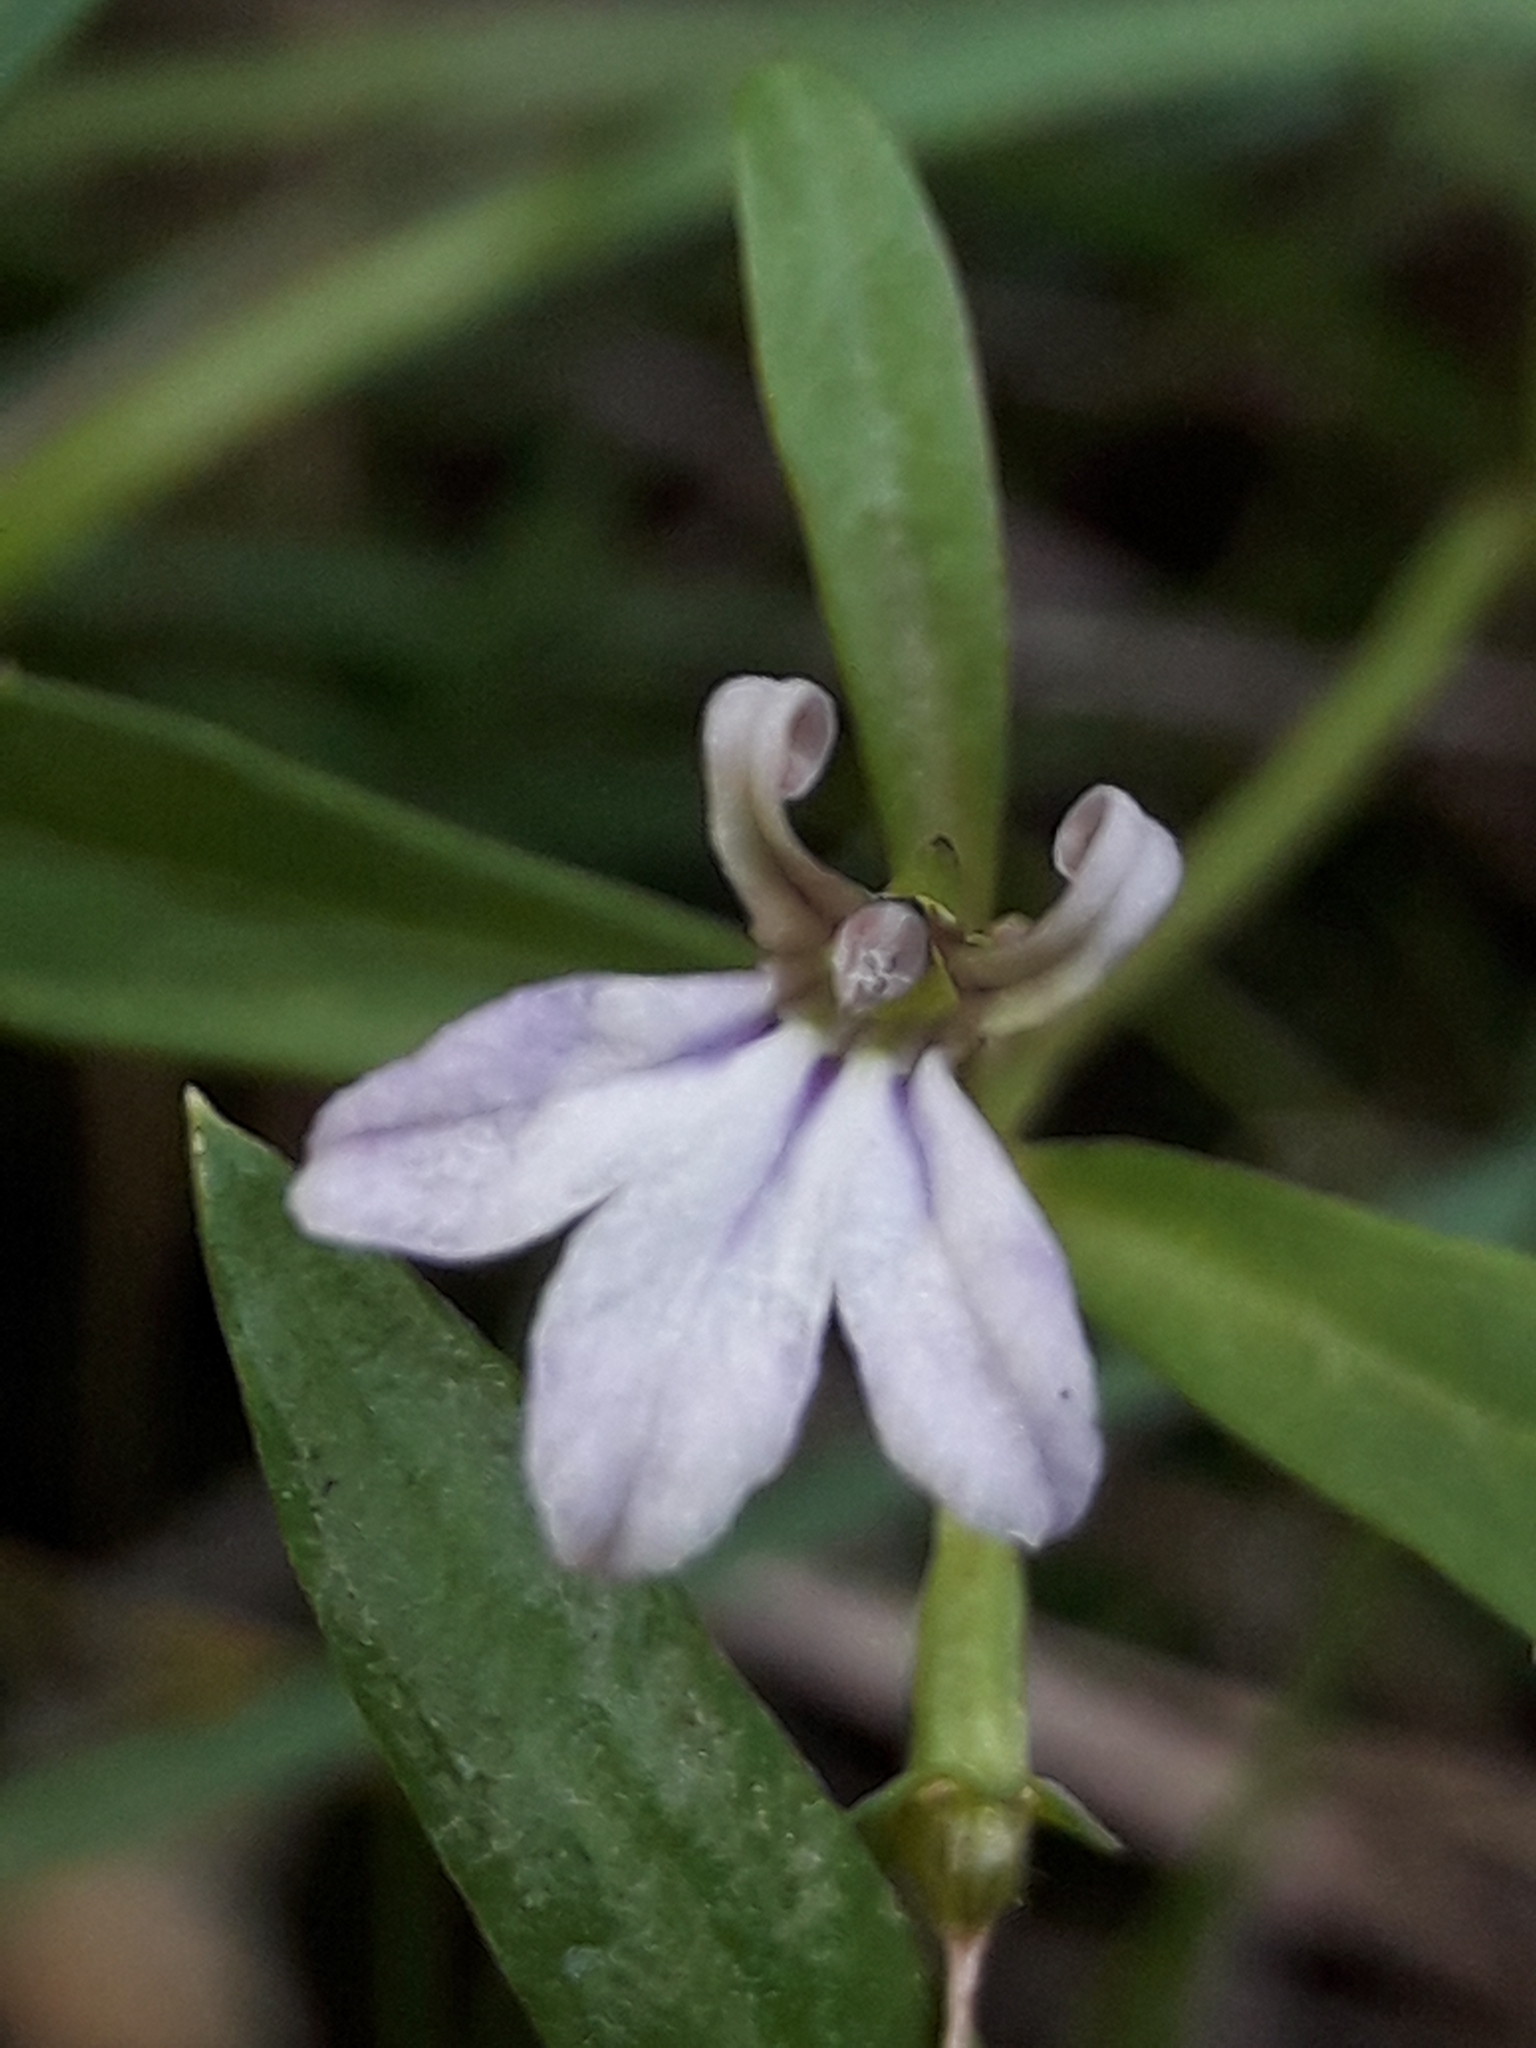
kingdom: Plantae
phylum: Tracheophyta
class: Magnoliopsida
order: Asterales
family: Campanulaceae
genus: Lobelia
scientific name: Lobelia anceps
